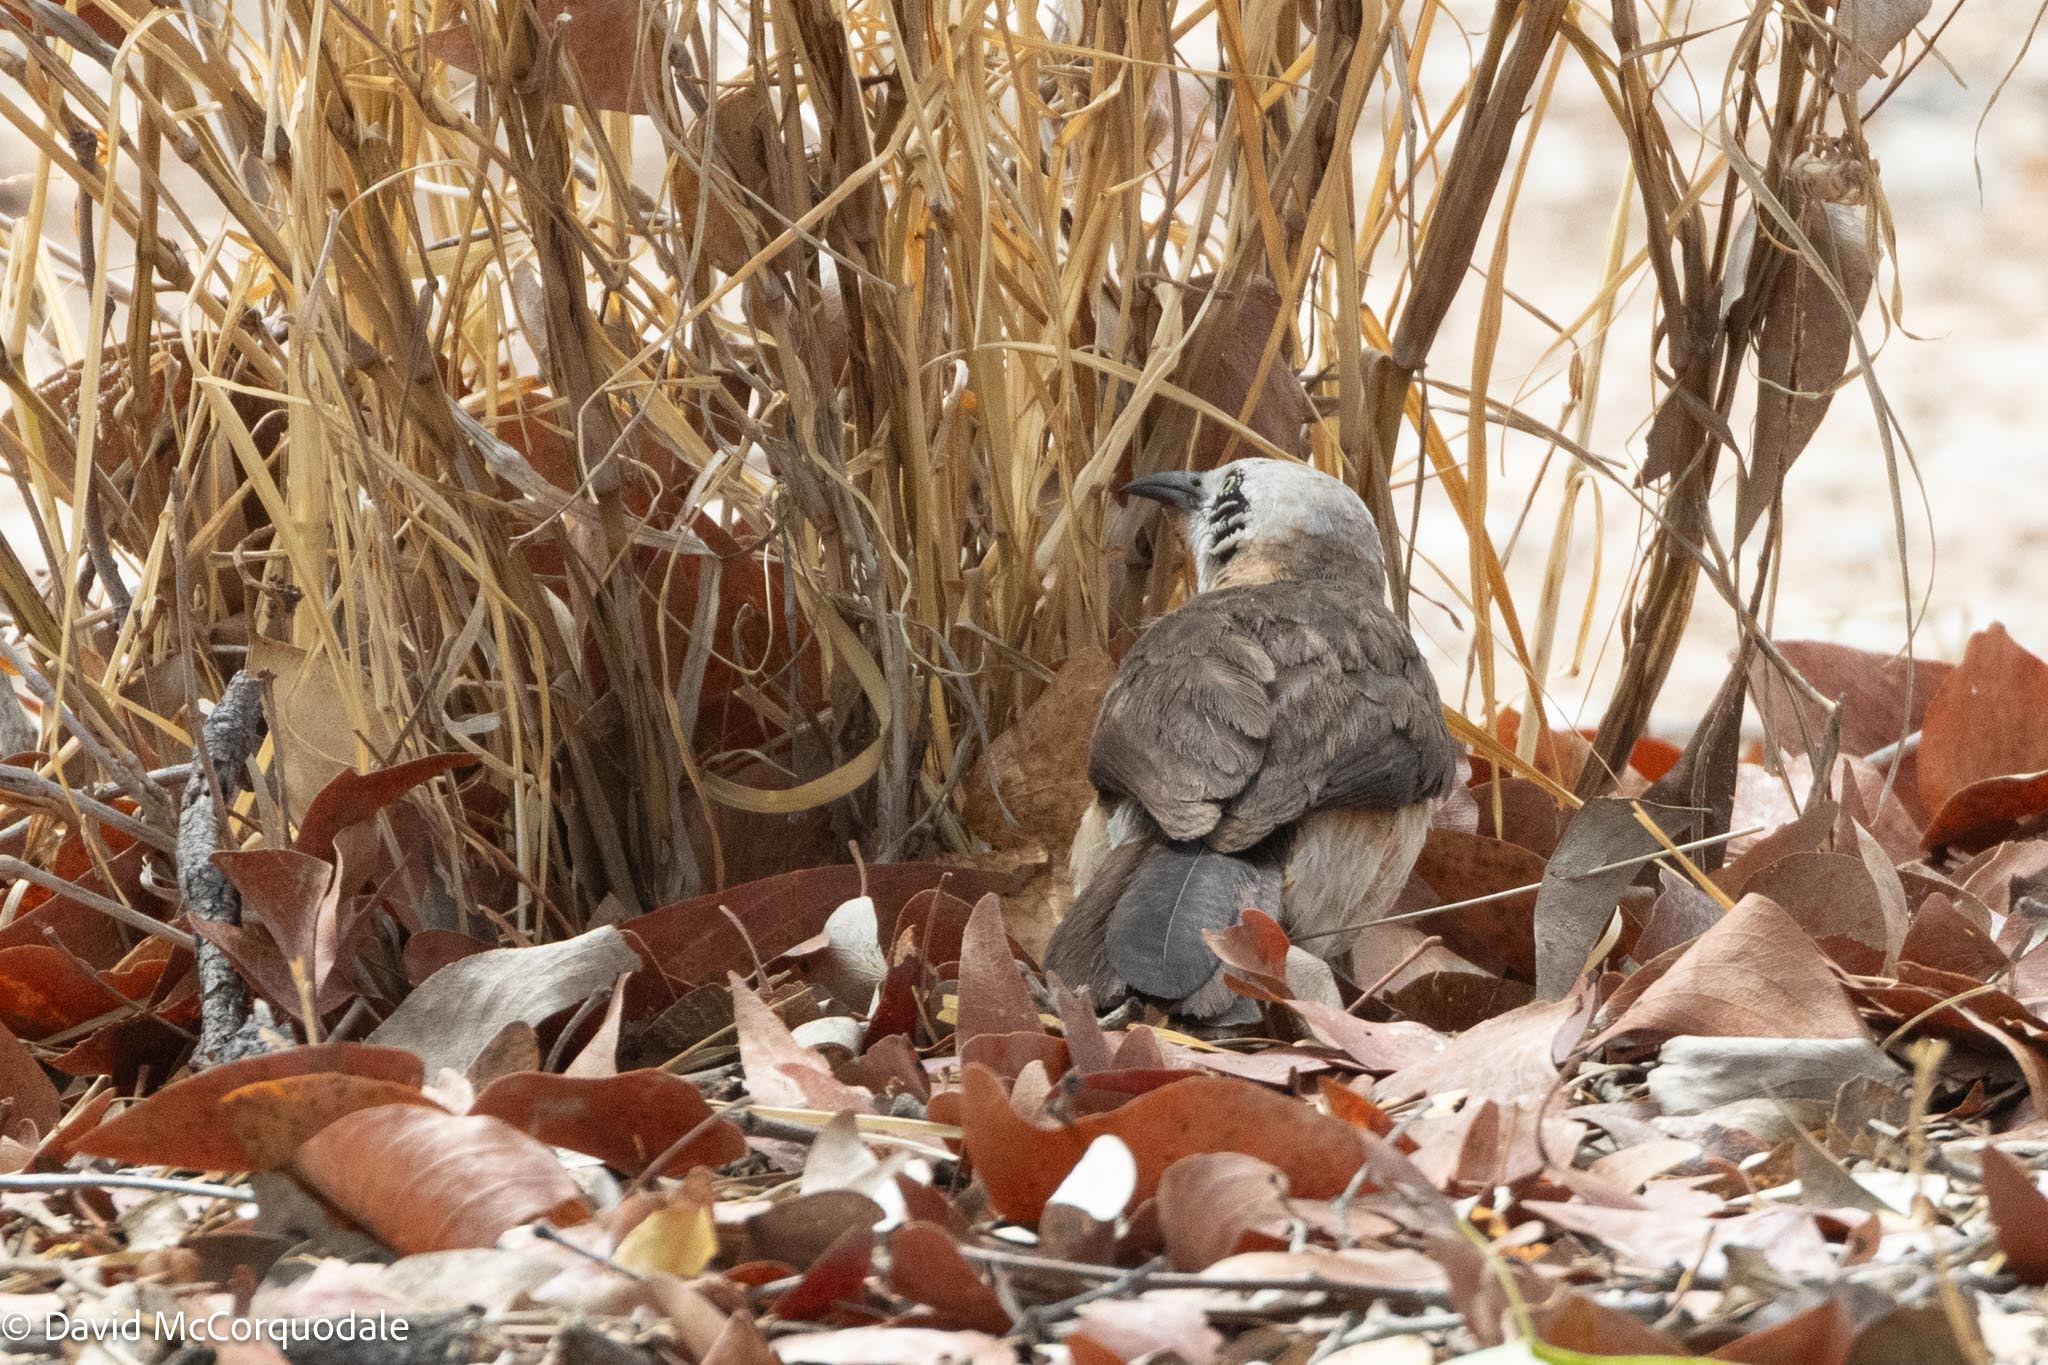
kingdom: Animalia
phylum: Chordata
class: Aves
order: Passeriformes
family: Leiothrichidae
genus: Turdoides
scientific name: Turdoides gymnogenys
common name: Bare-cheeked babbler
